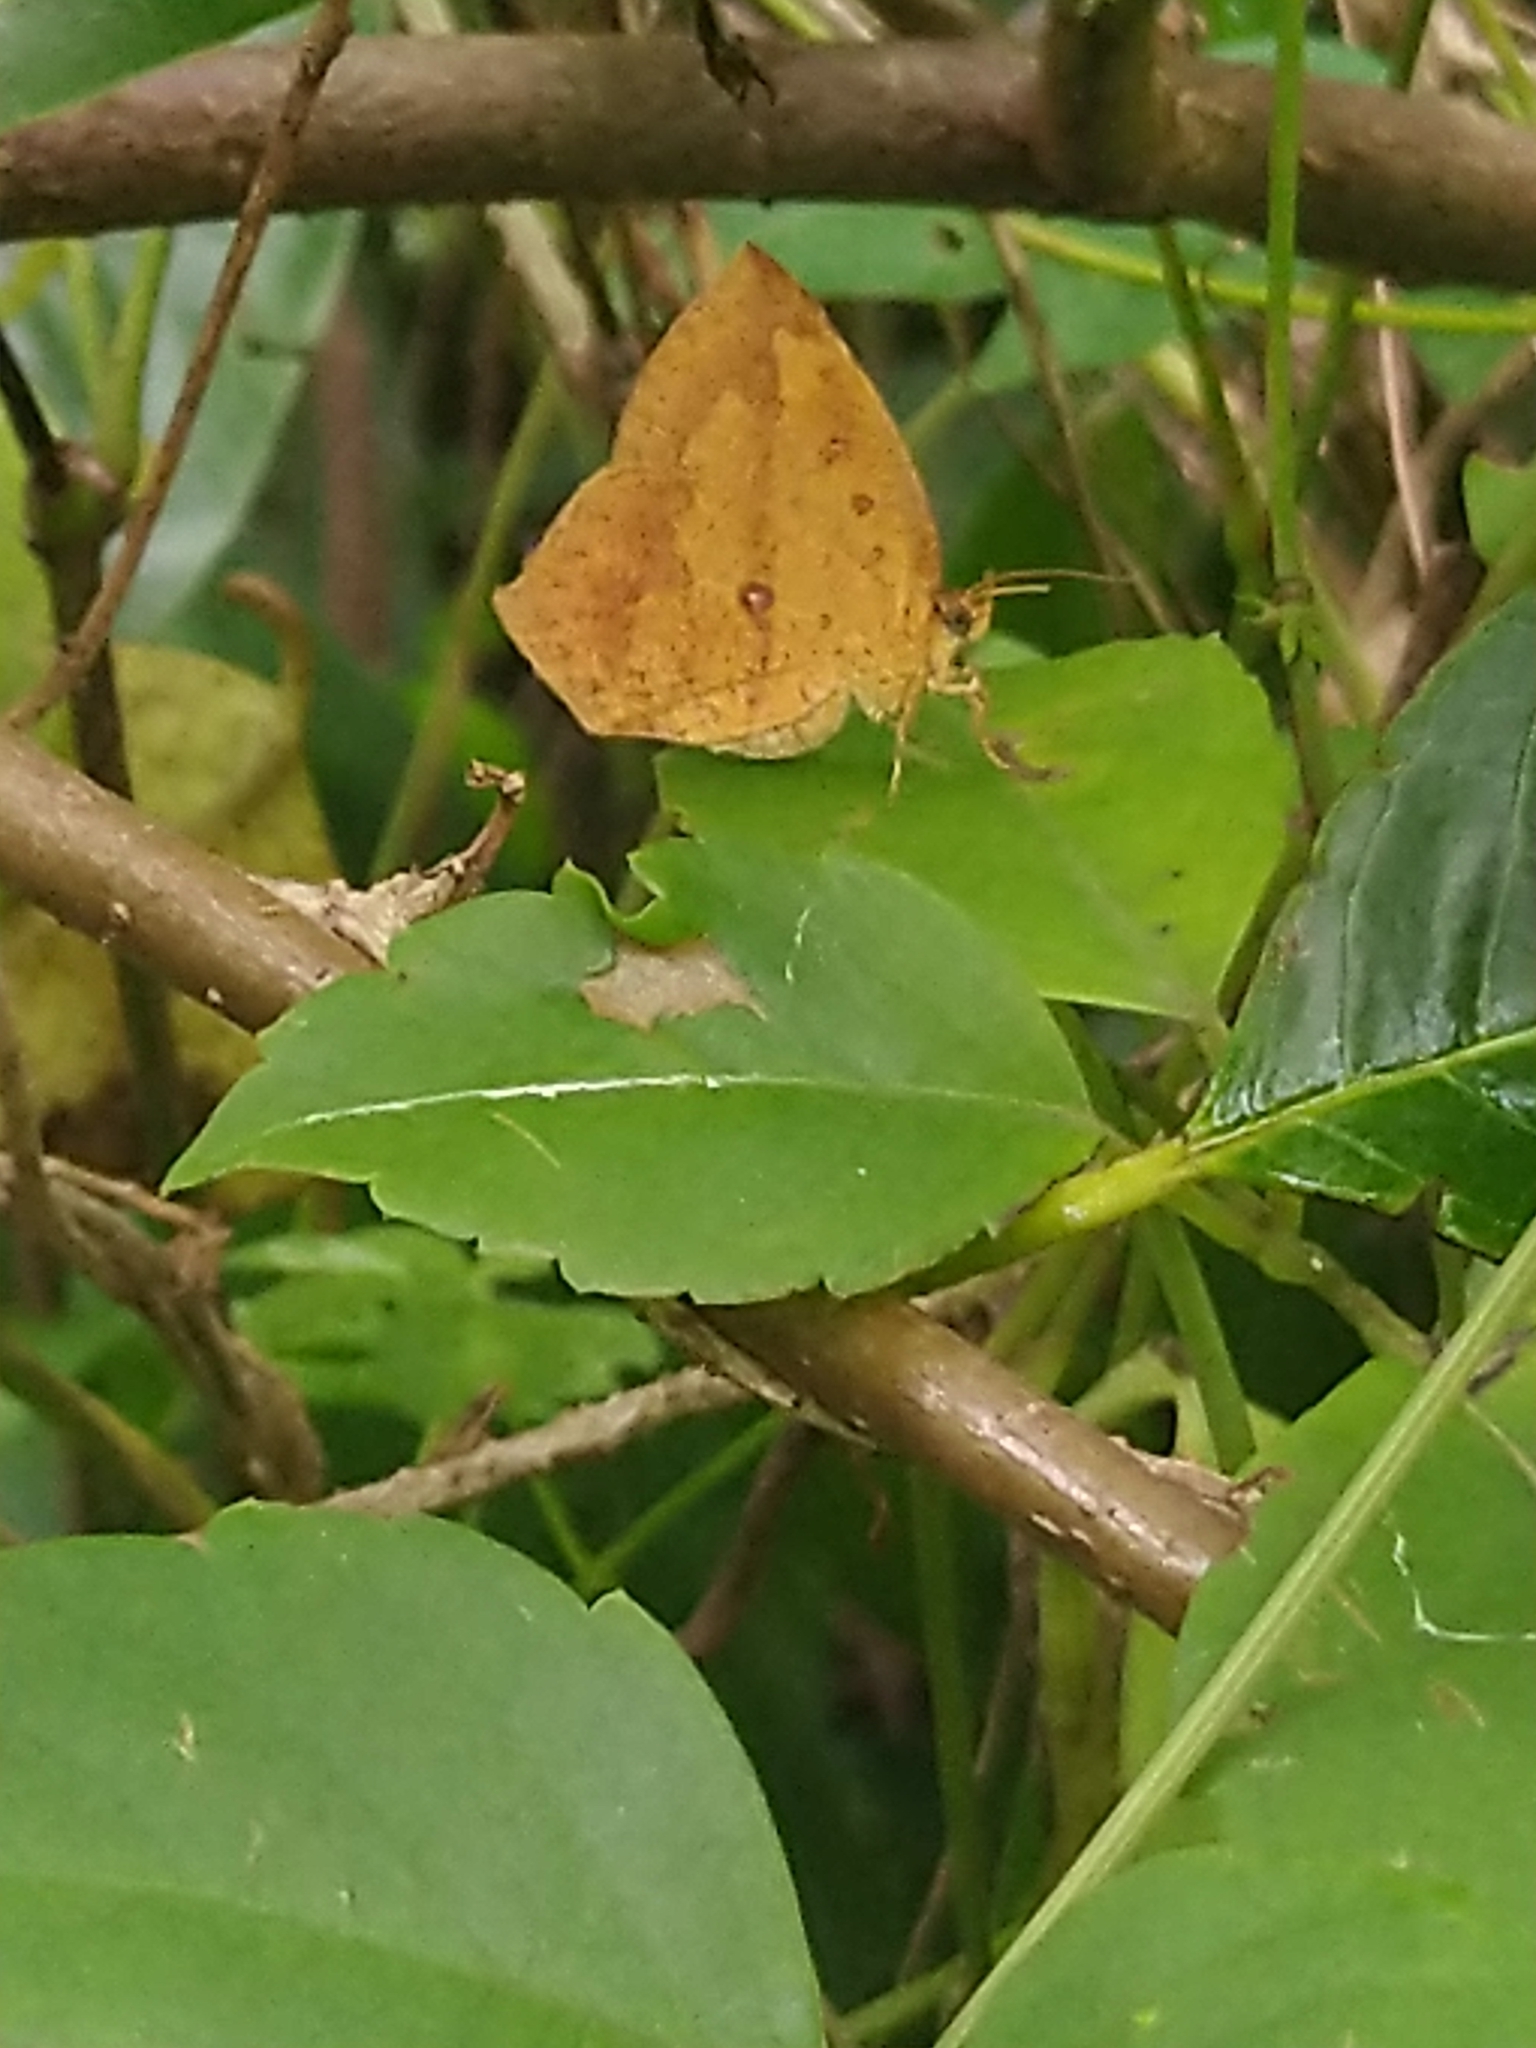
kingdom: Animalia
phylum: Arthropoda
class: Insecta
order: Lepidoptera
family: Callidulidae
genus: Tetragonus
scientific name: Tetragonus catamitus
